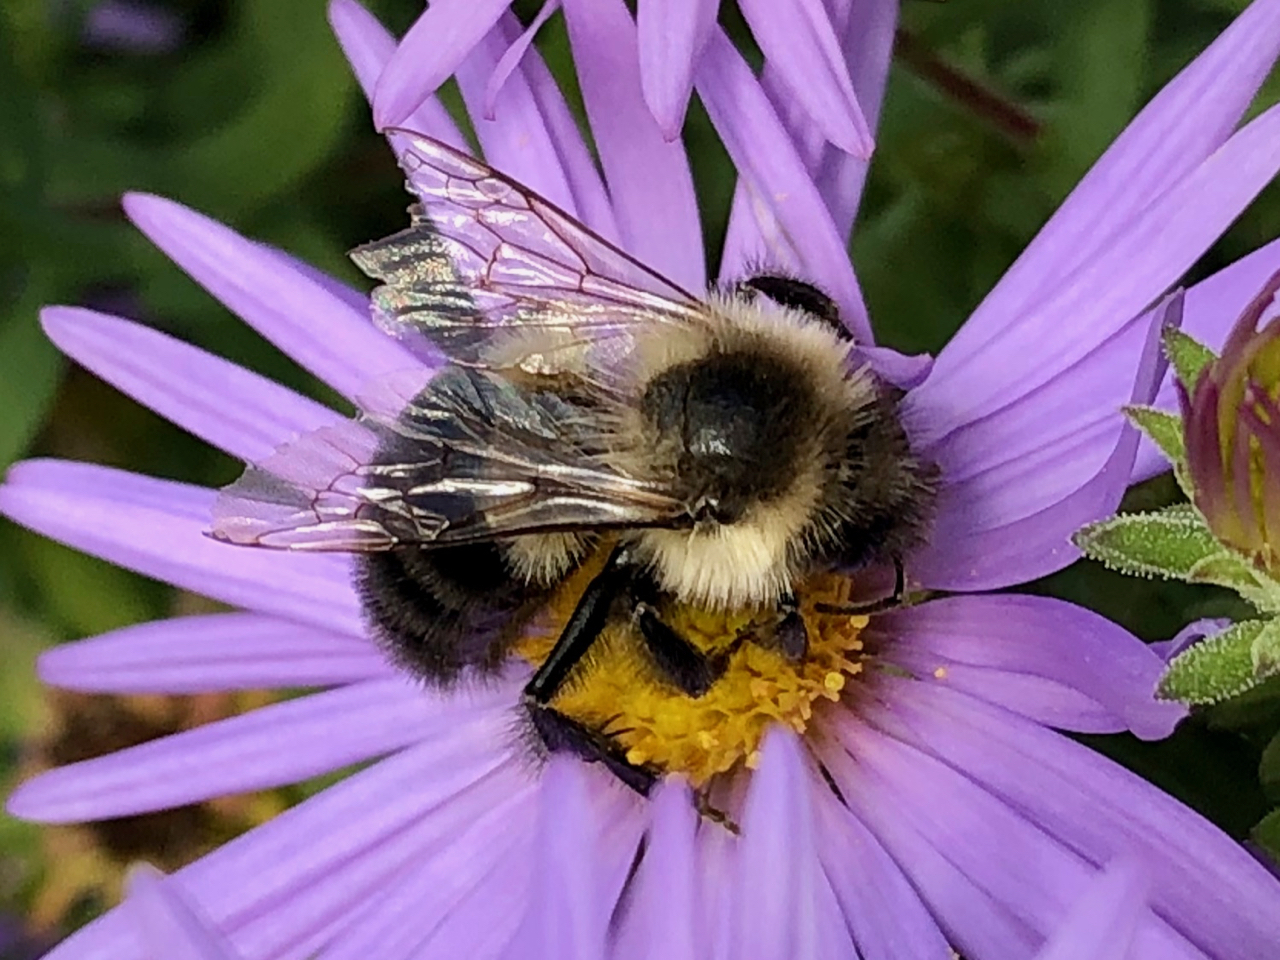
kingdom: Animalia
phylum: Arthropoda
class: Insecta
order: Hymenoptera
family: Apidae
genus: Bombus
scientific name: Bombus impatiens
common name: Common eastern bumble bee
